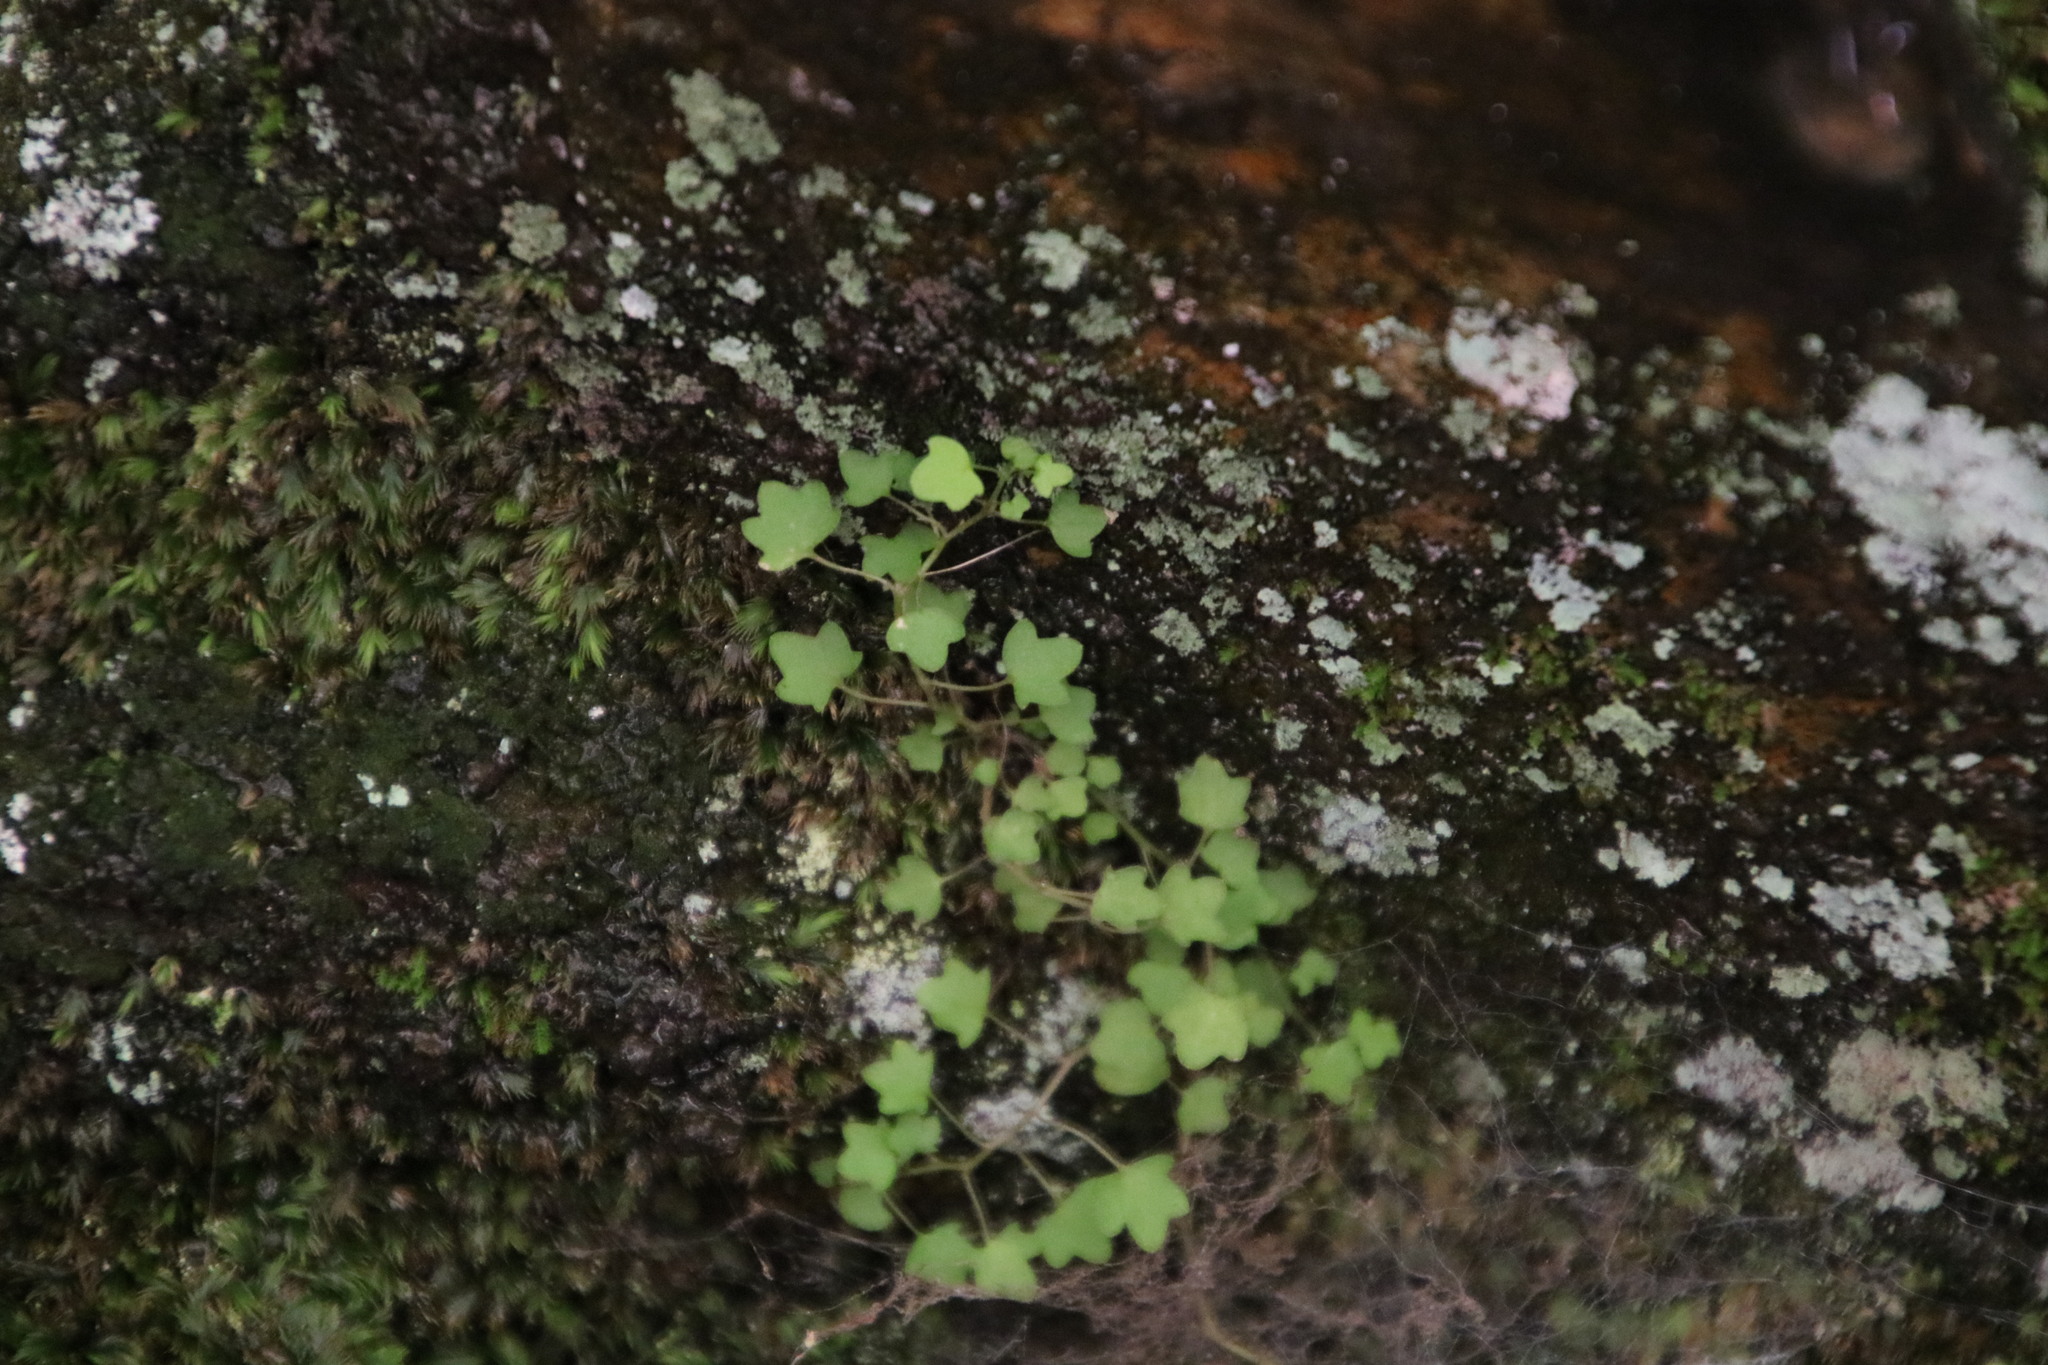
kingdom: Plantae
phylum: Tracheophyta
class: Magnoliopsida
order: Asterales
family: Campanulaceae
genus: Wimmerella
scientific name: Wimmerella pygmaea
